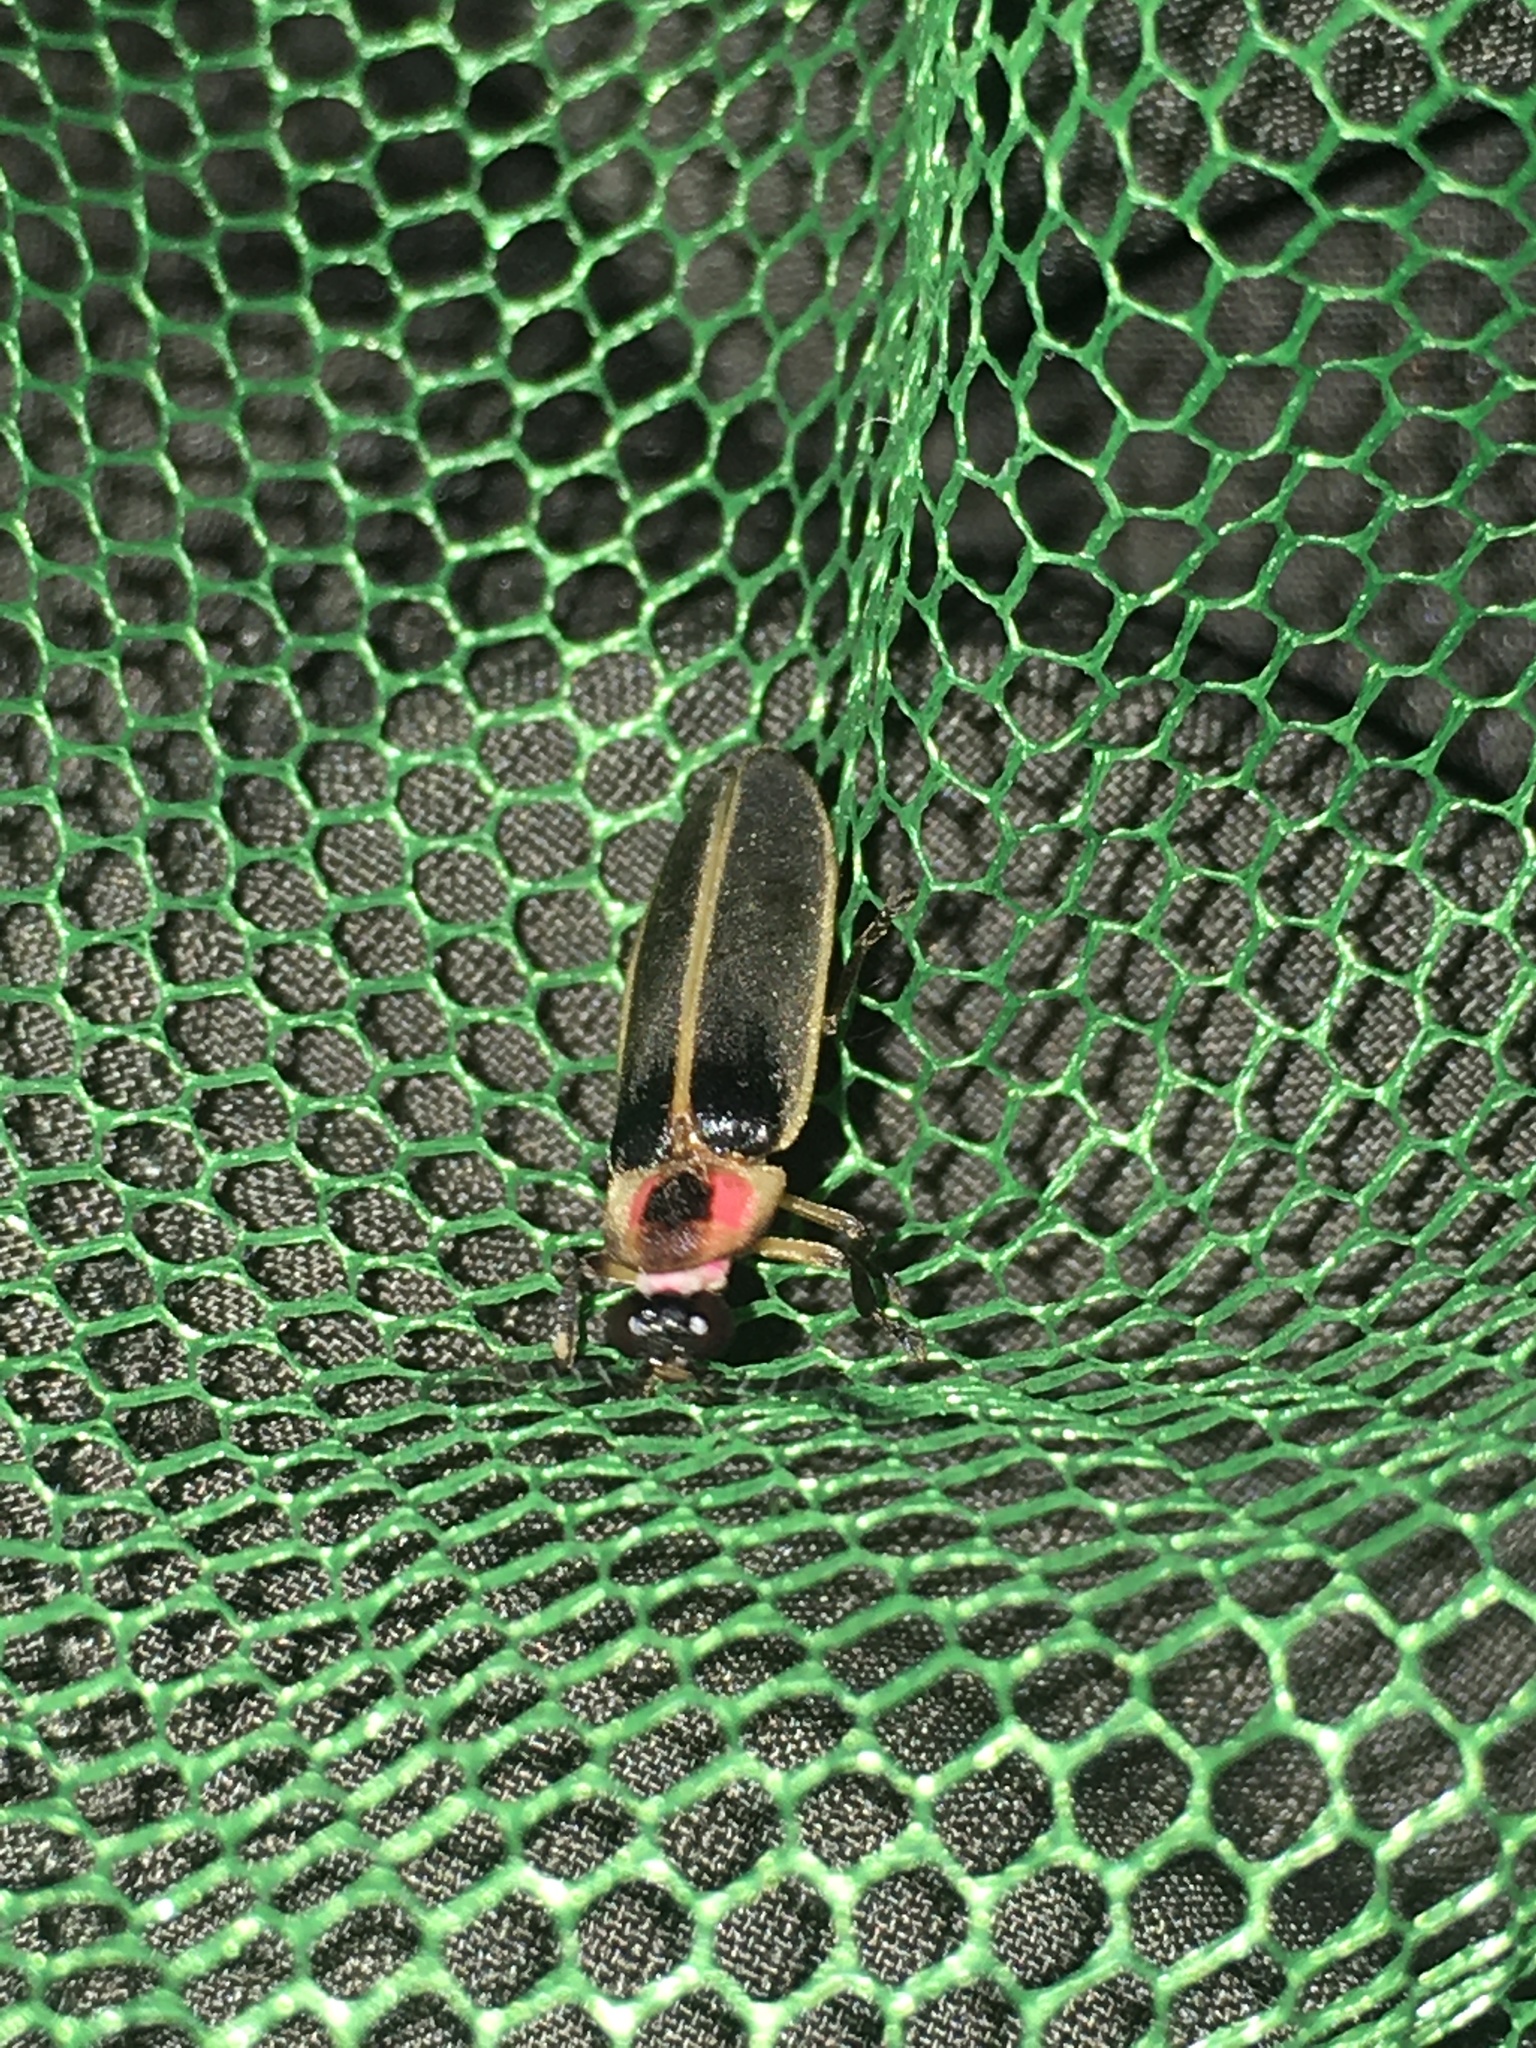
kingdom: Animalia
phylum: Arthropoda
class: Insecta
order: Coleoptera
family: Lampyridae
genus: Photinus
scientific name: Photinus pyralis
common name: Big dipper firefly
